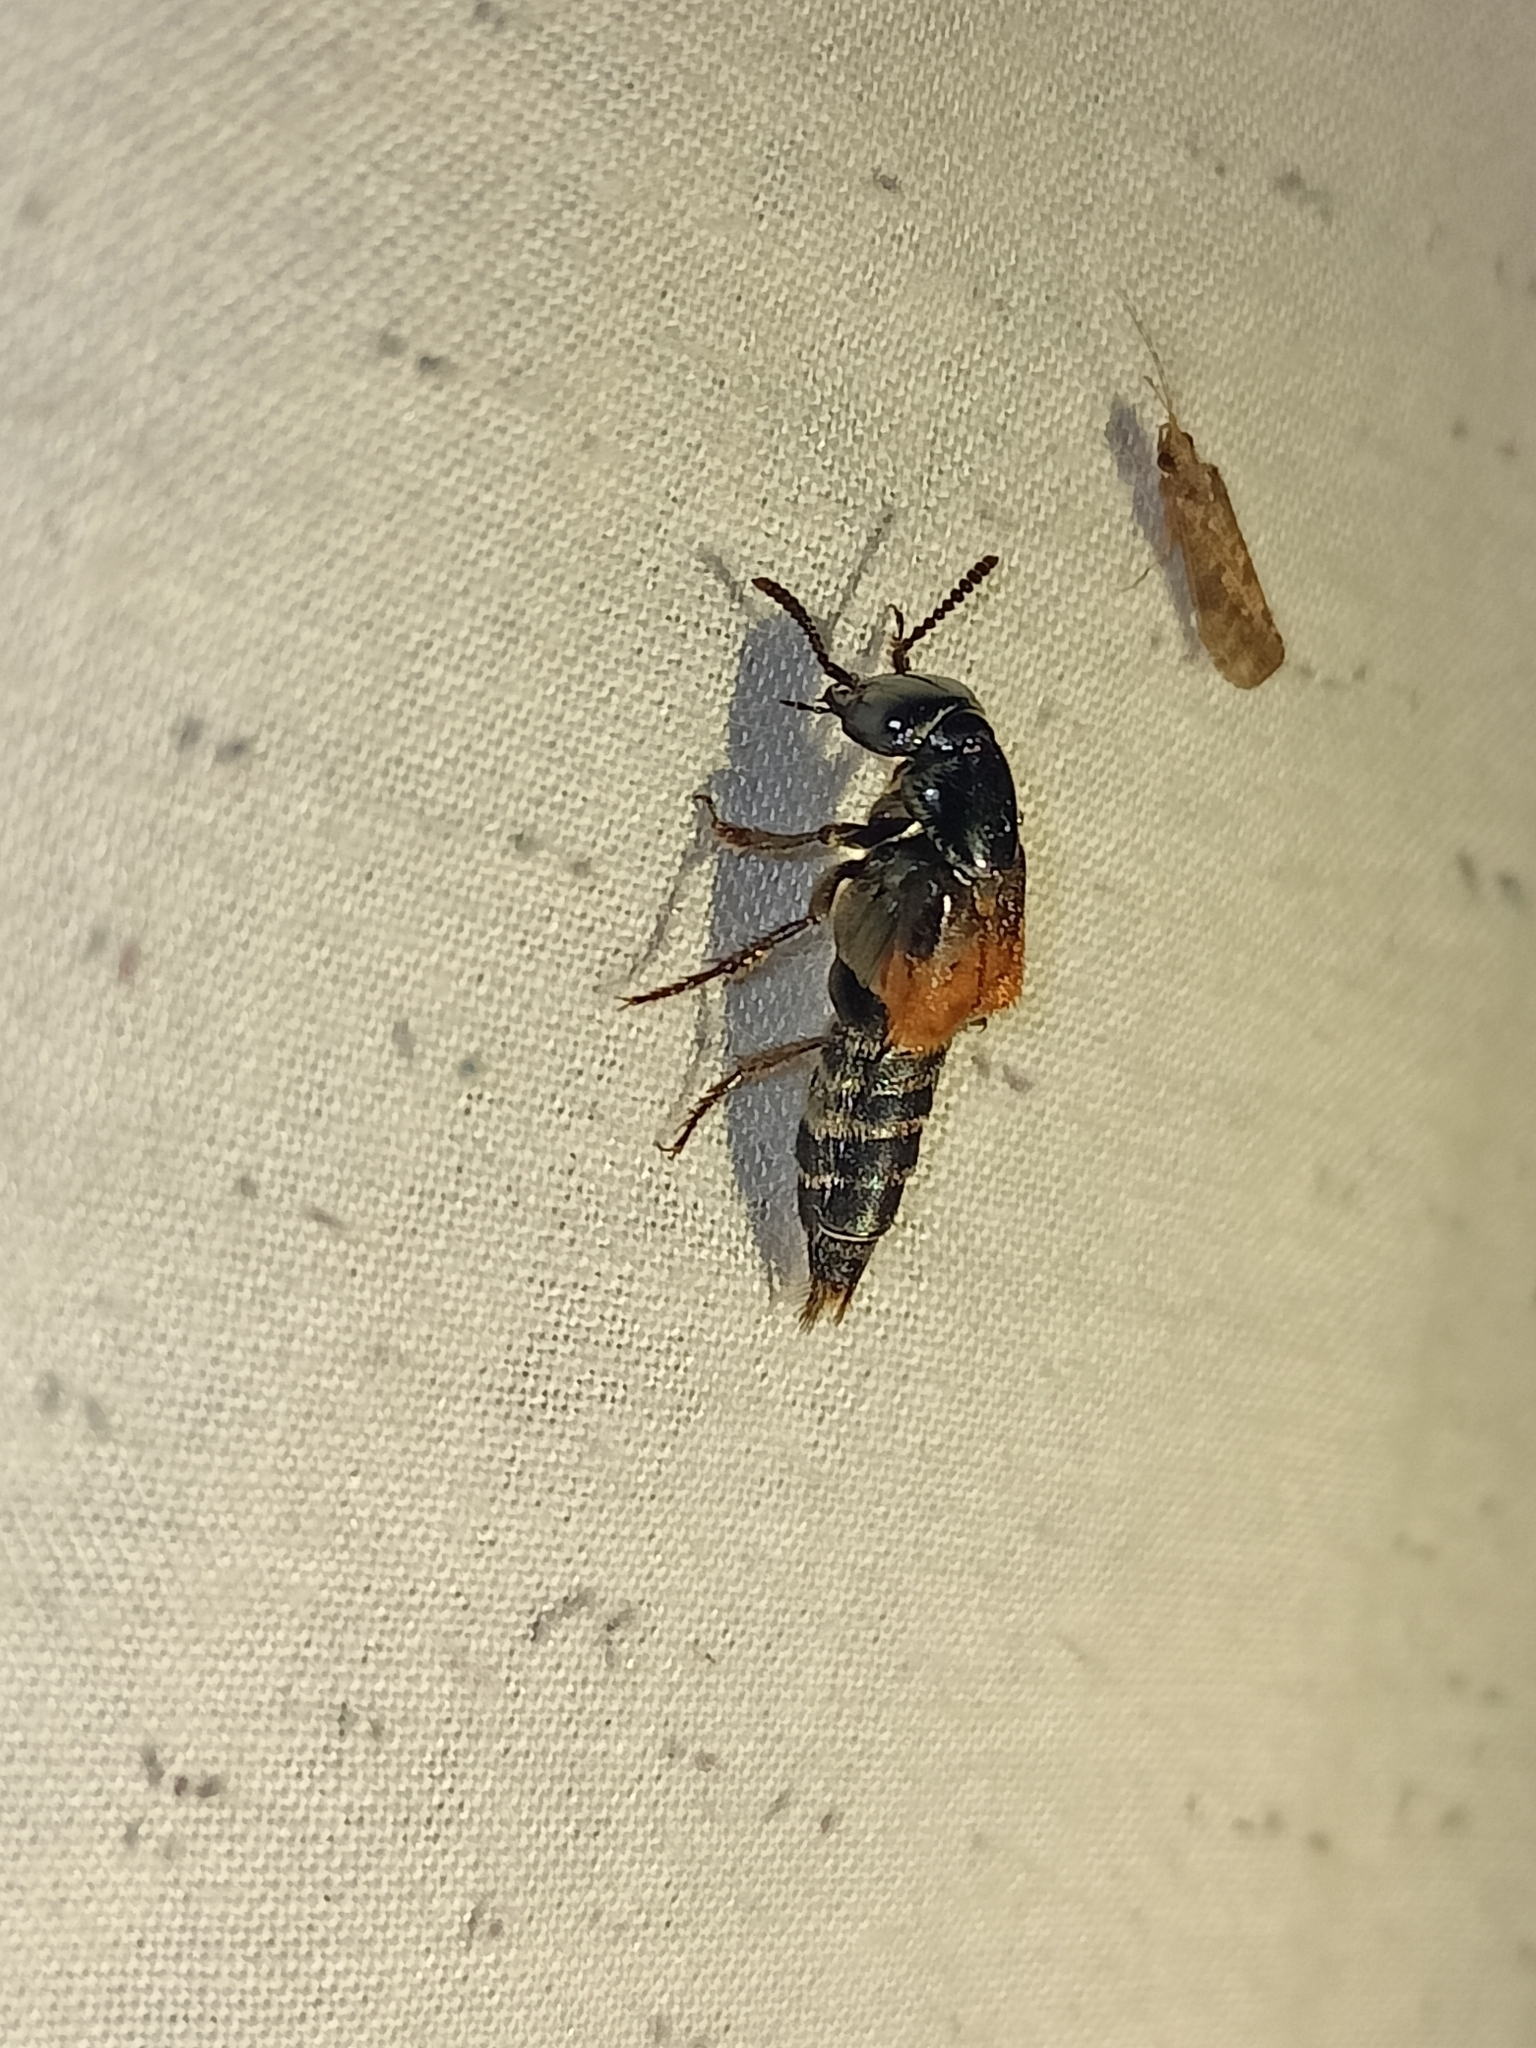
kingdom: Animalia
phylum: Arthropoda
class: Insecta
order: Coleoptera
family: Staphylinidae
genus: Creophilus
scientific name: Creophilus flavipennis
